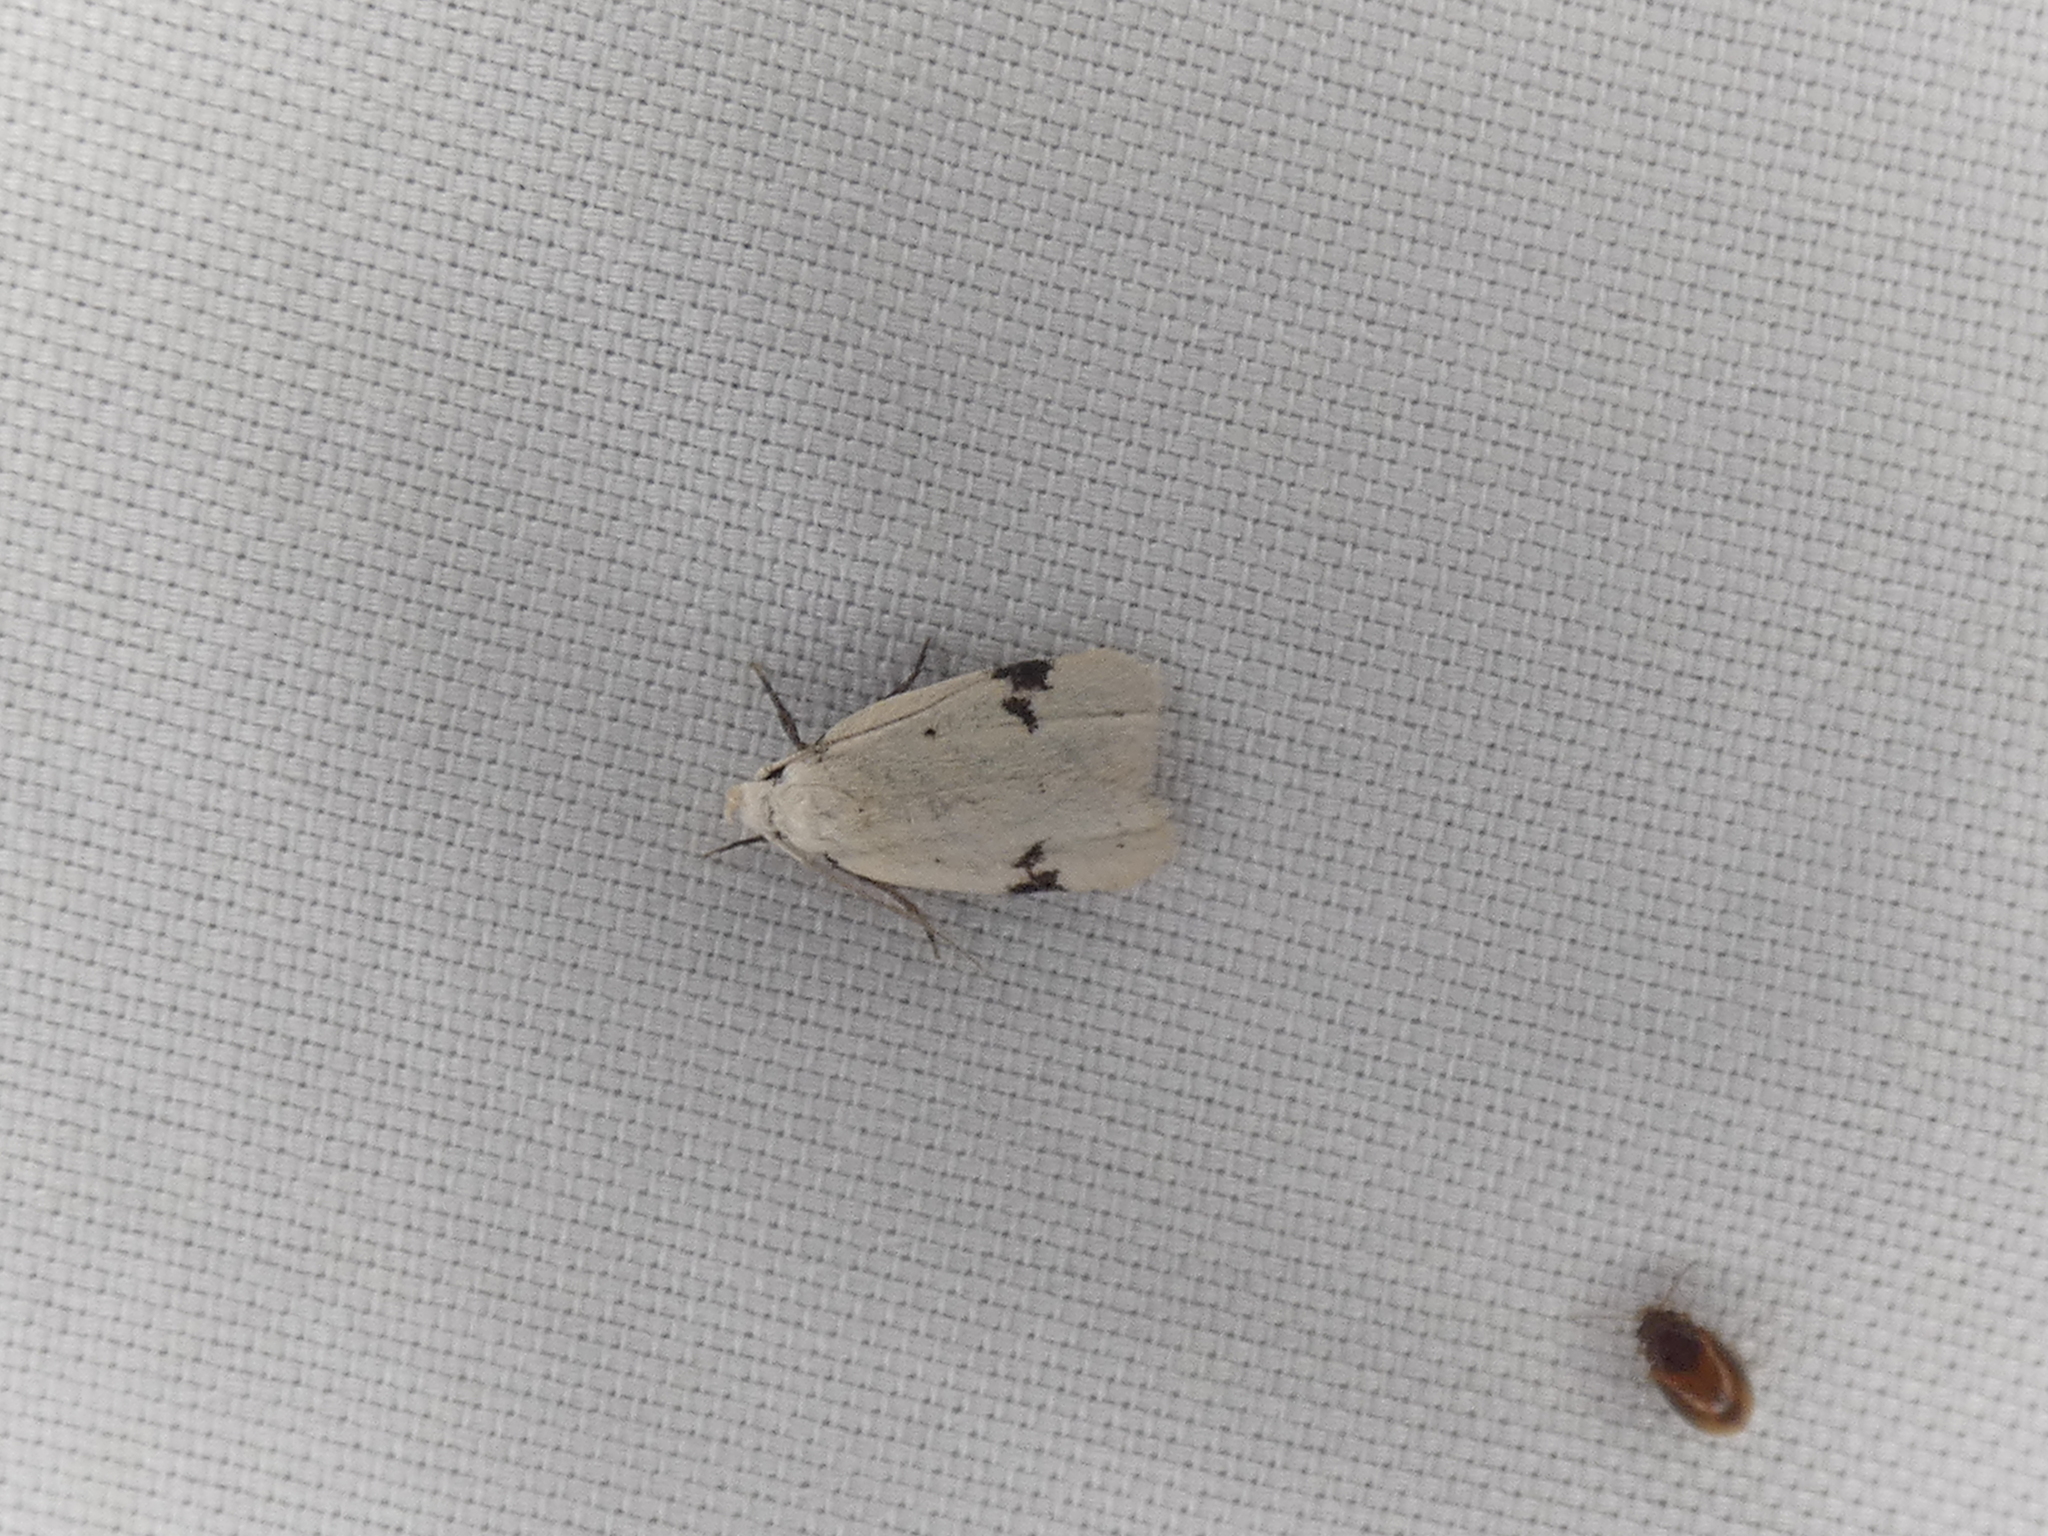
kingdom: Animalia
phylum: Arthropoda
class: Insecta
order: Lepidoptera
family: Oecophoridae
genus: Inga
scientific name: Inga sparsiciliella
